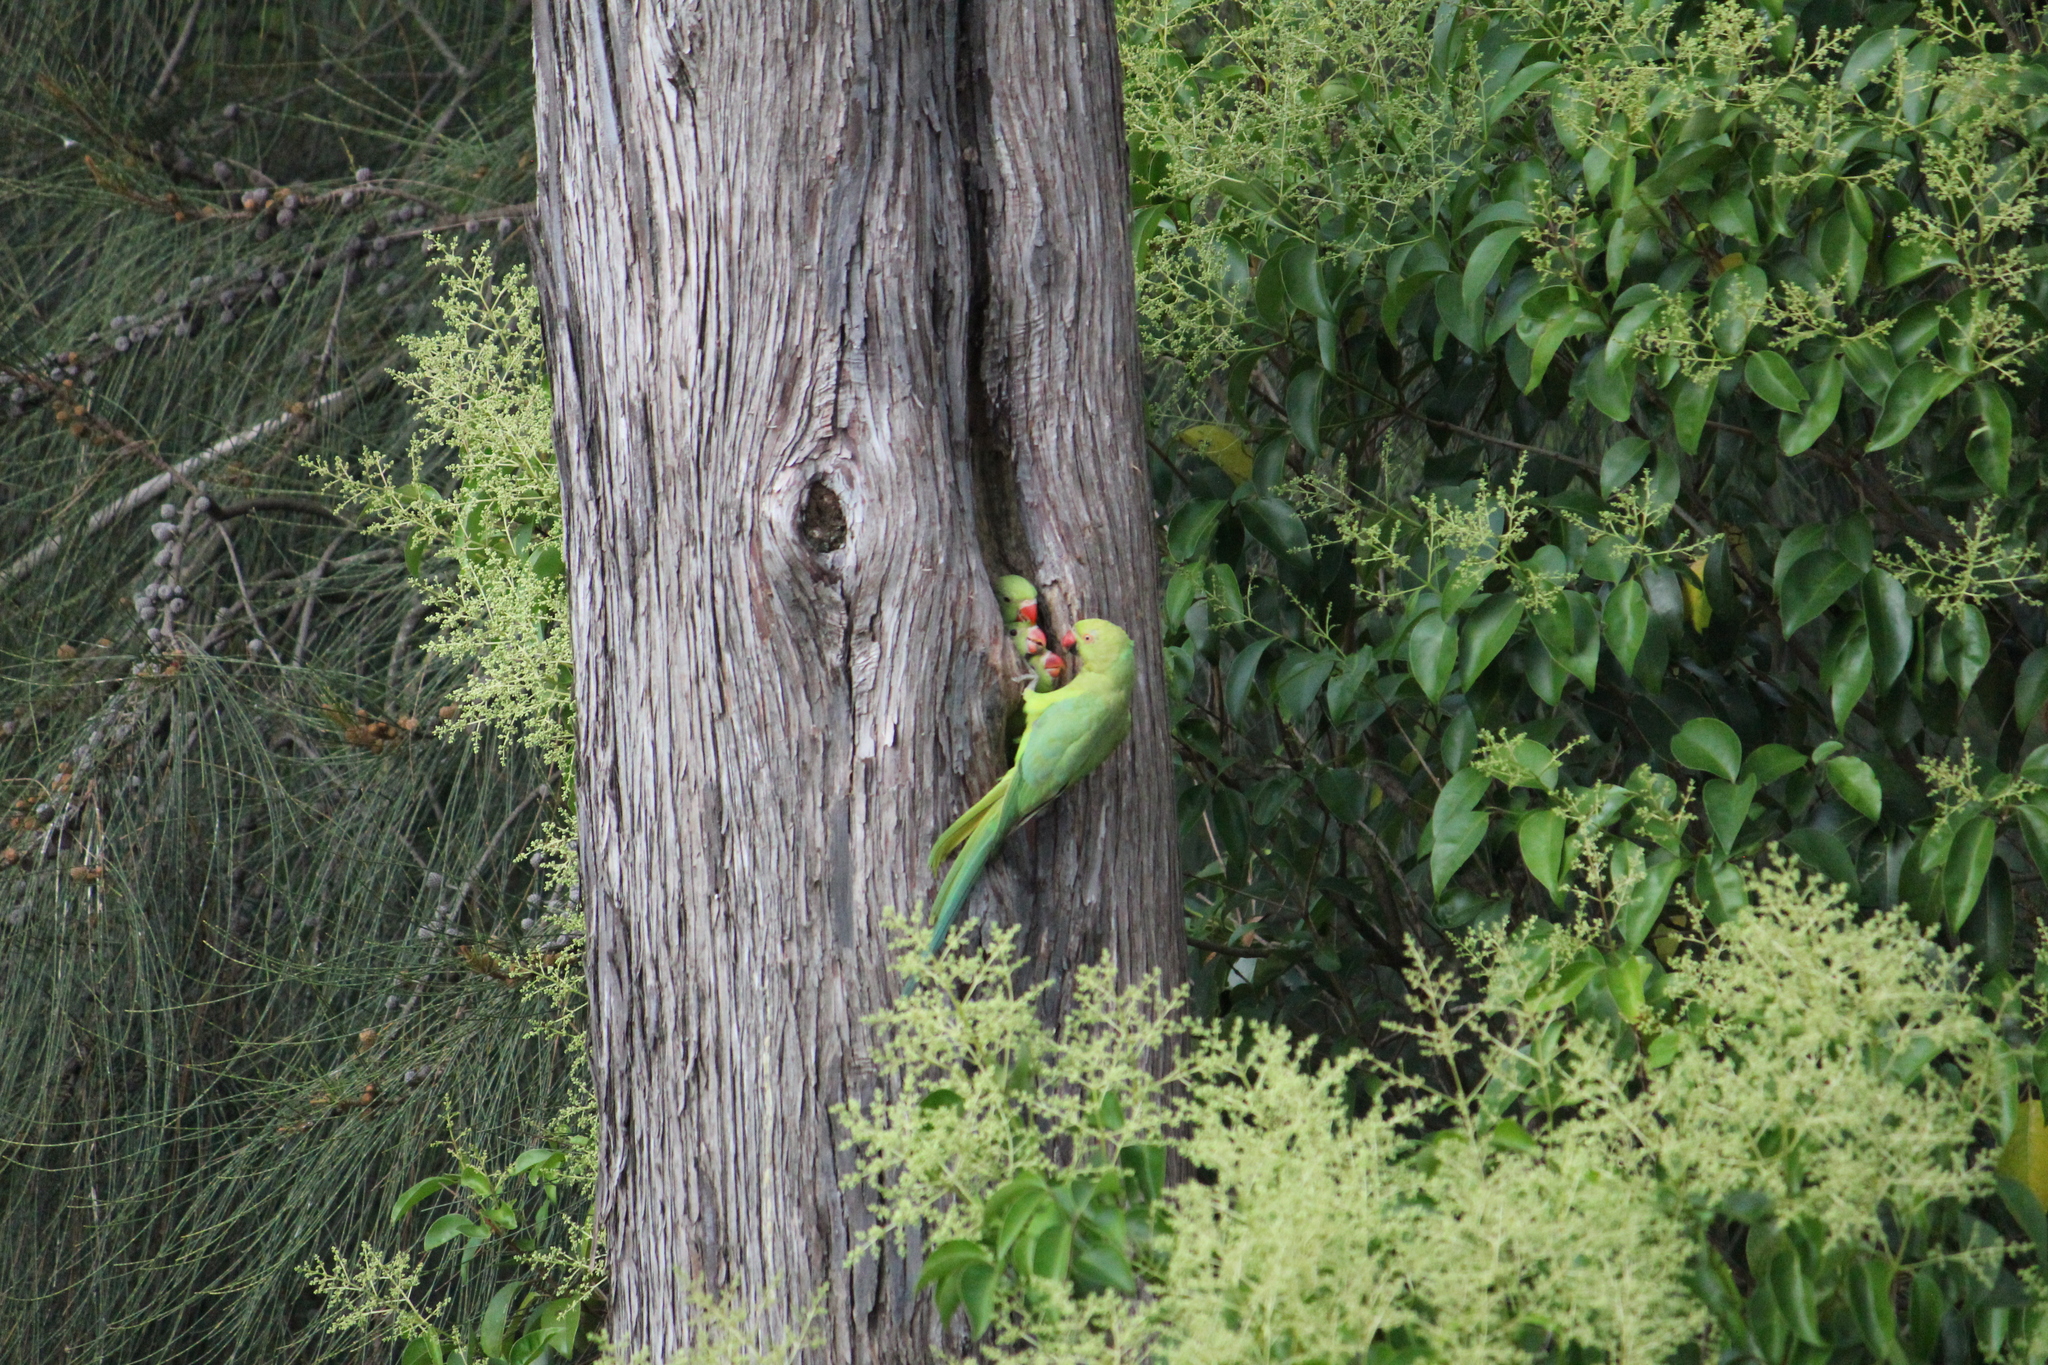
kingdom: Animalia
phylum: Chordata
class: Aves
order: Psittaciformes
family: Psittacidae
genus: Psittacula
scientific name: Psittacula krameri
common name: Rose-ringed parakeet
